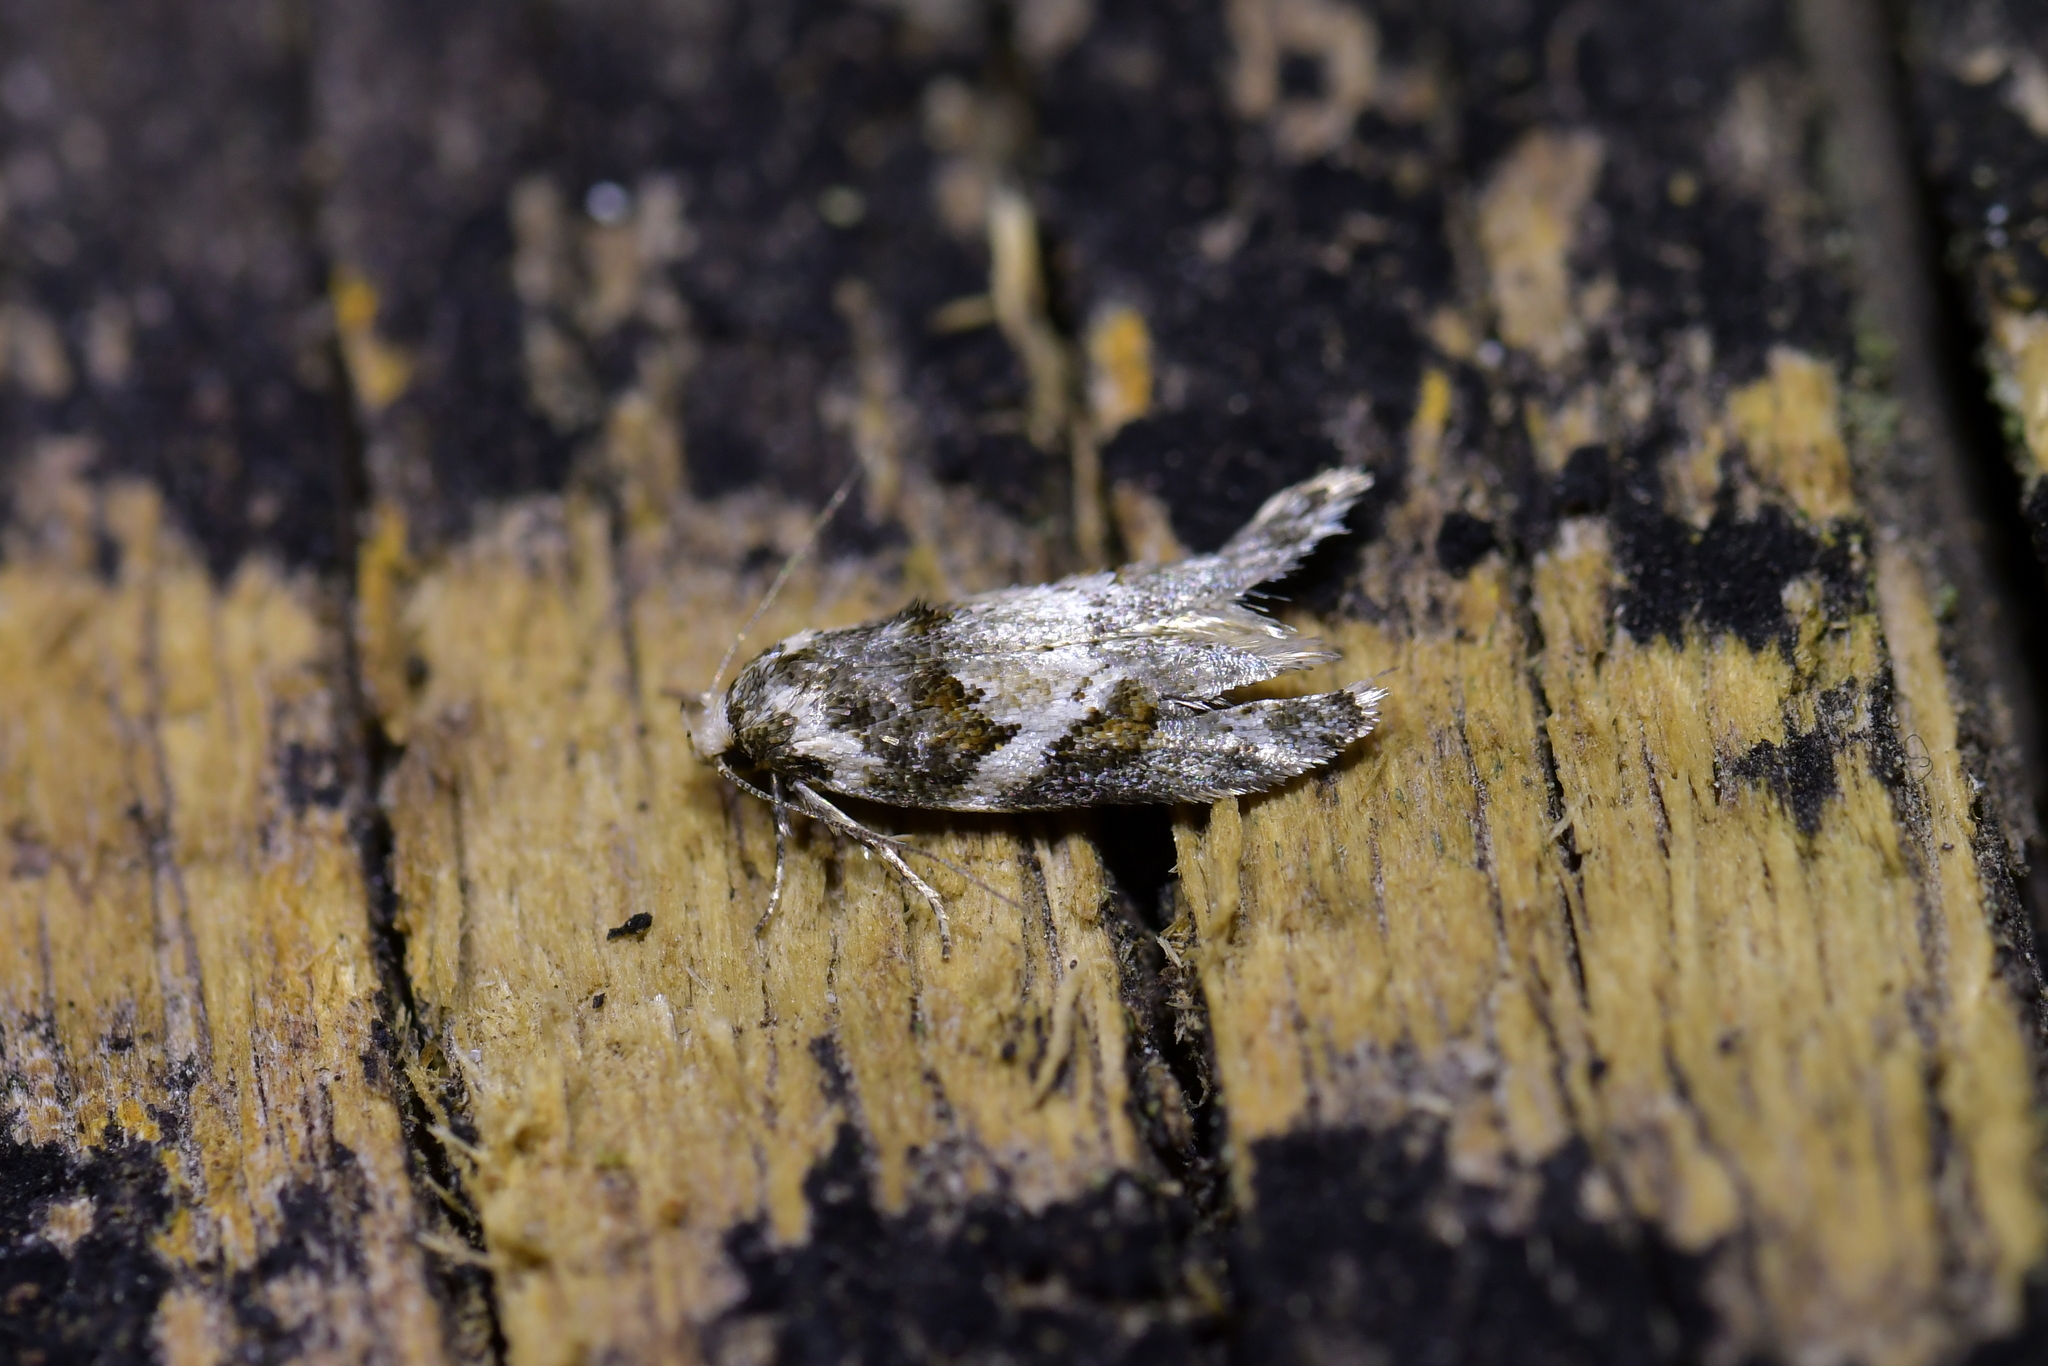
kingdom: Animalia
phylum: Arthropoda
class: Insecta
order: Lepidoptera
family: Oecophoridae
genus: Trachypepla
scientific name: Trachypepla galaxias
